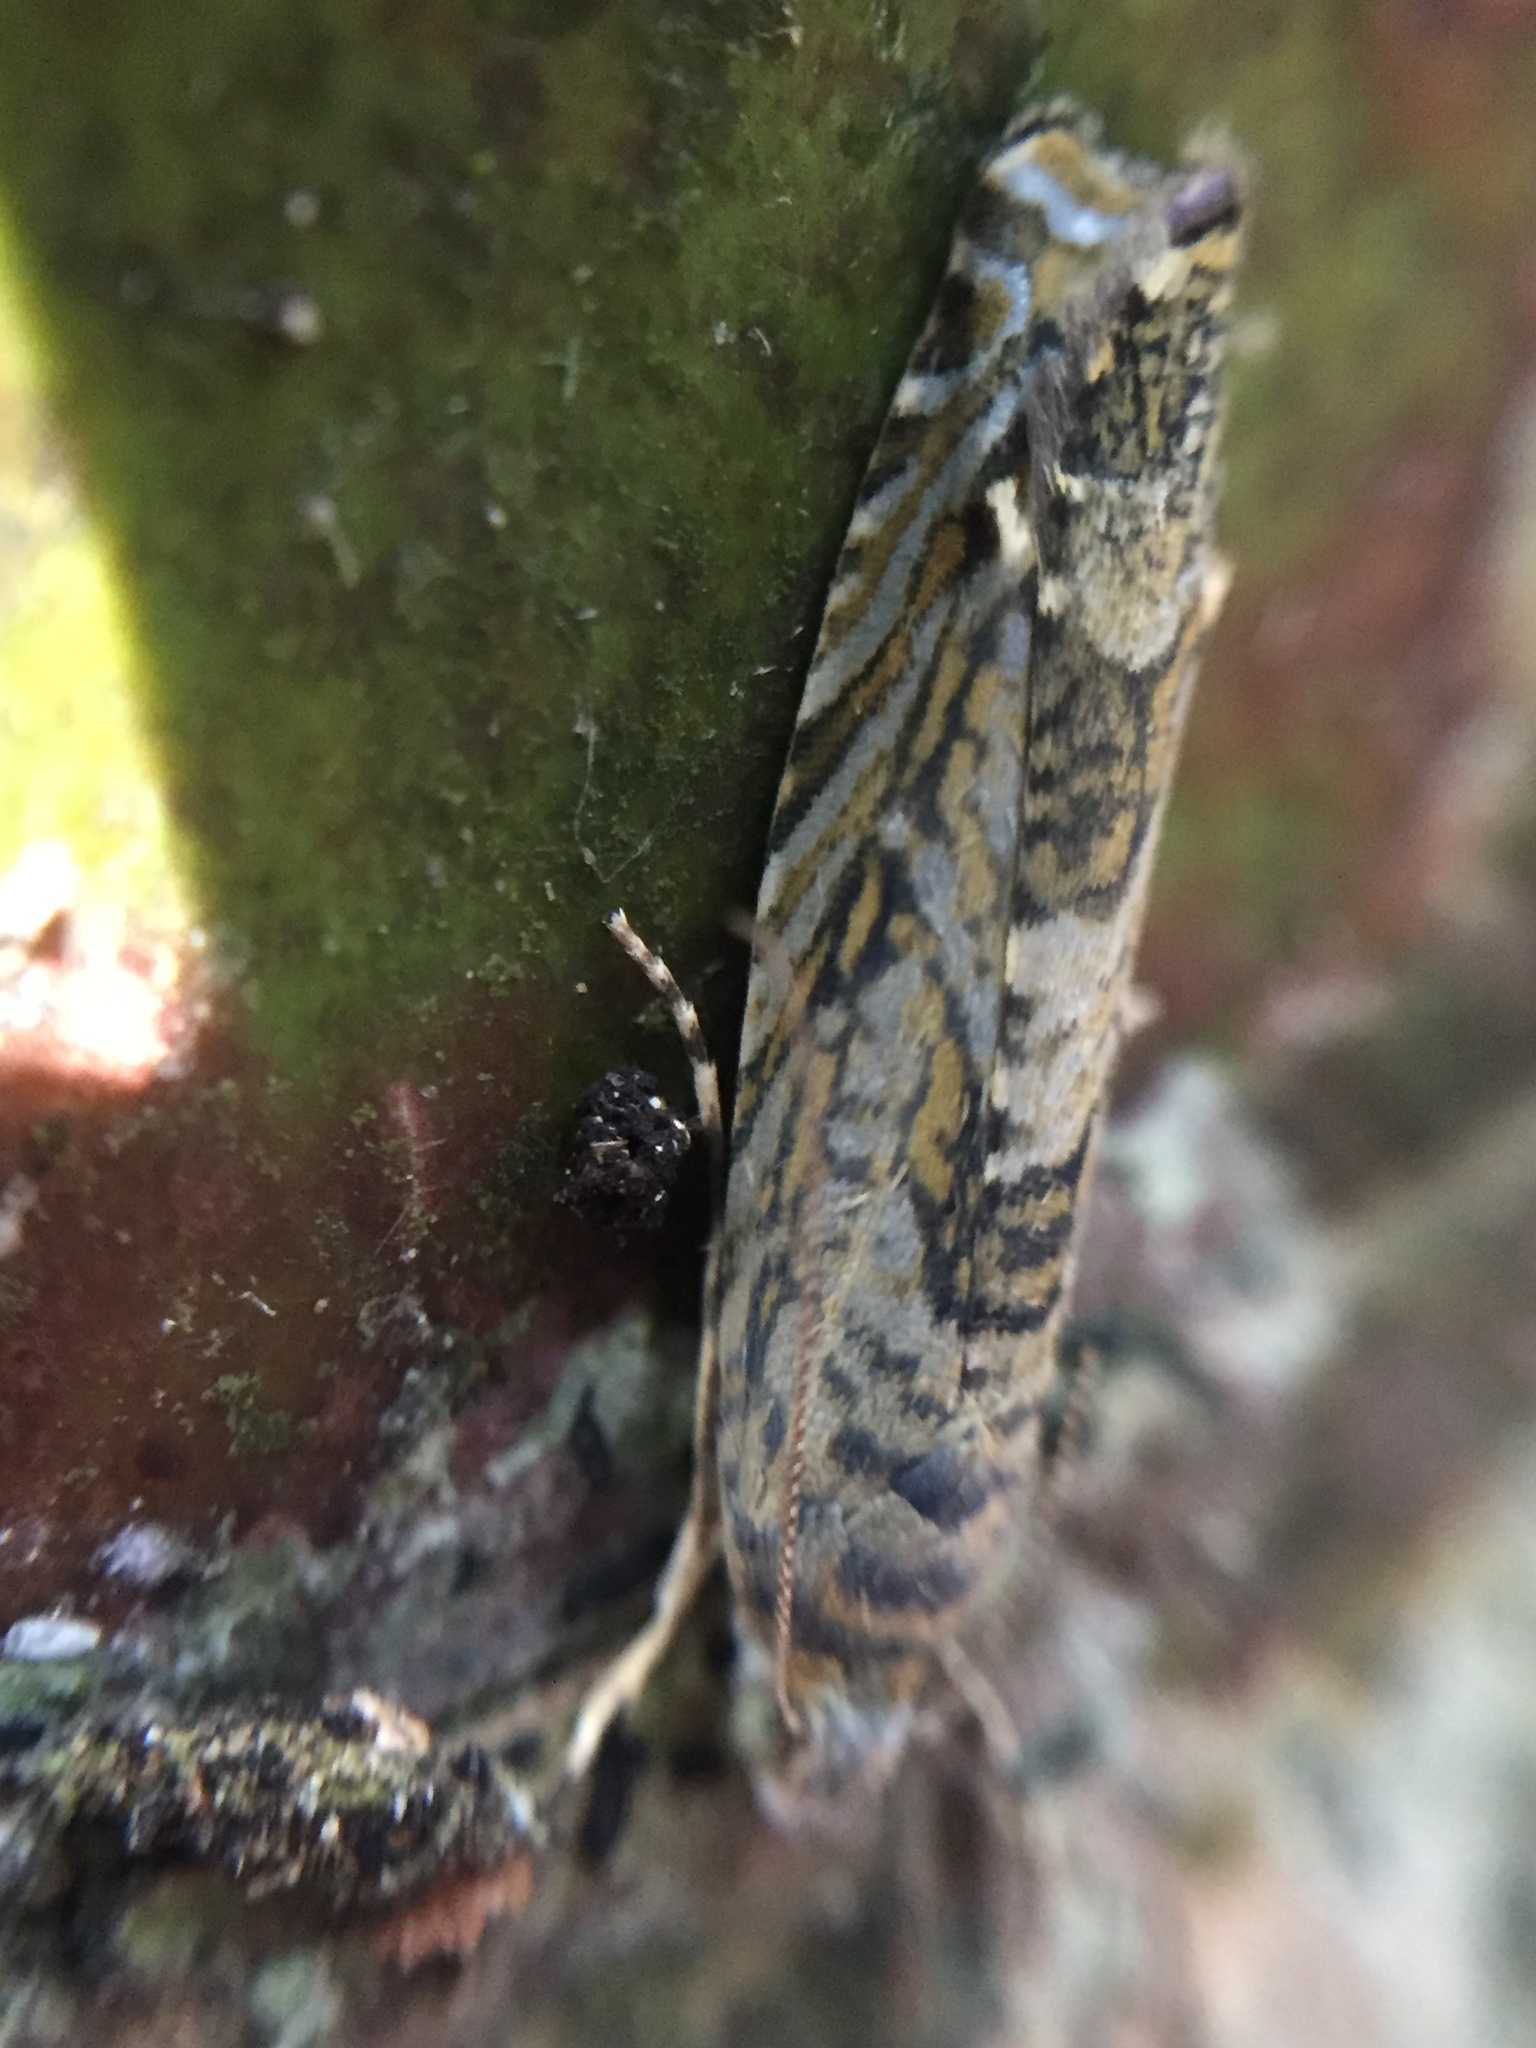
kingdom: Animalia
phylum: Arthropoda
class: Insecta
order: Lepidoptera
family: Plutellidae
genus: Doxophyrtis
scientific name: Doxophyrtis hydrocosma
